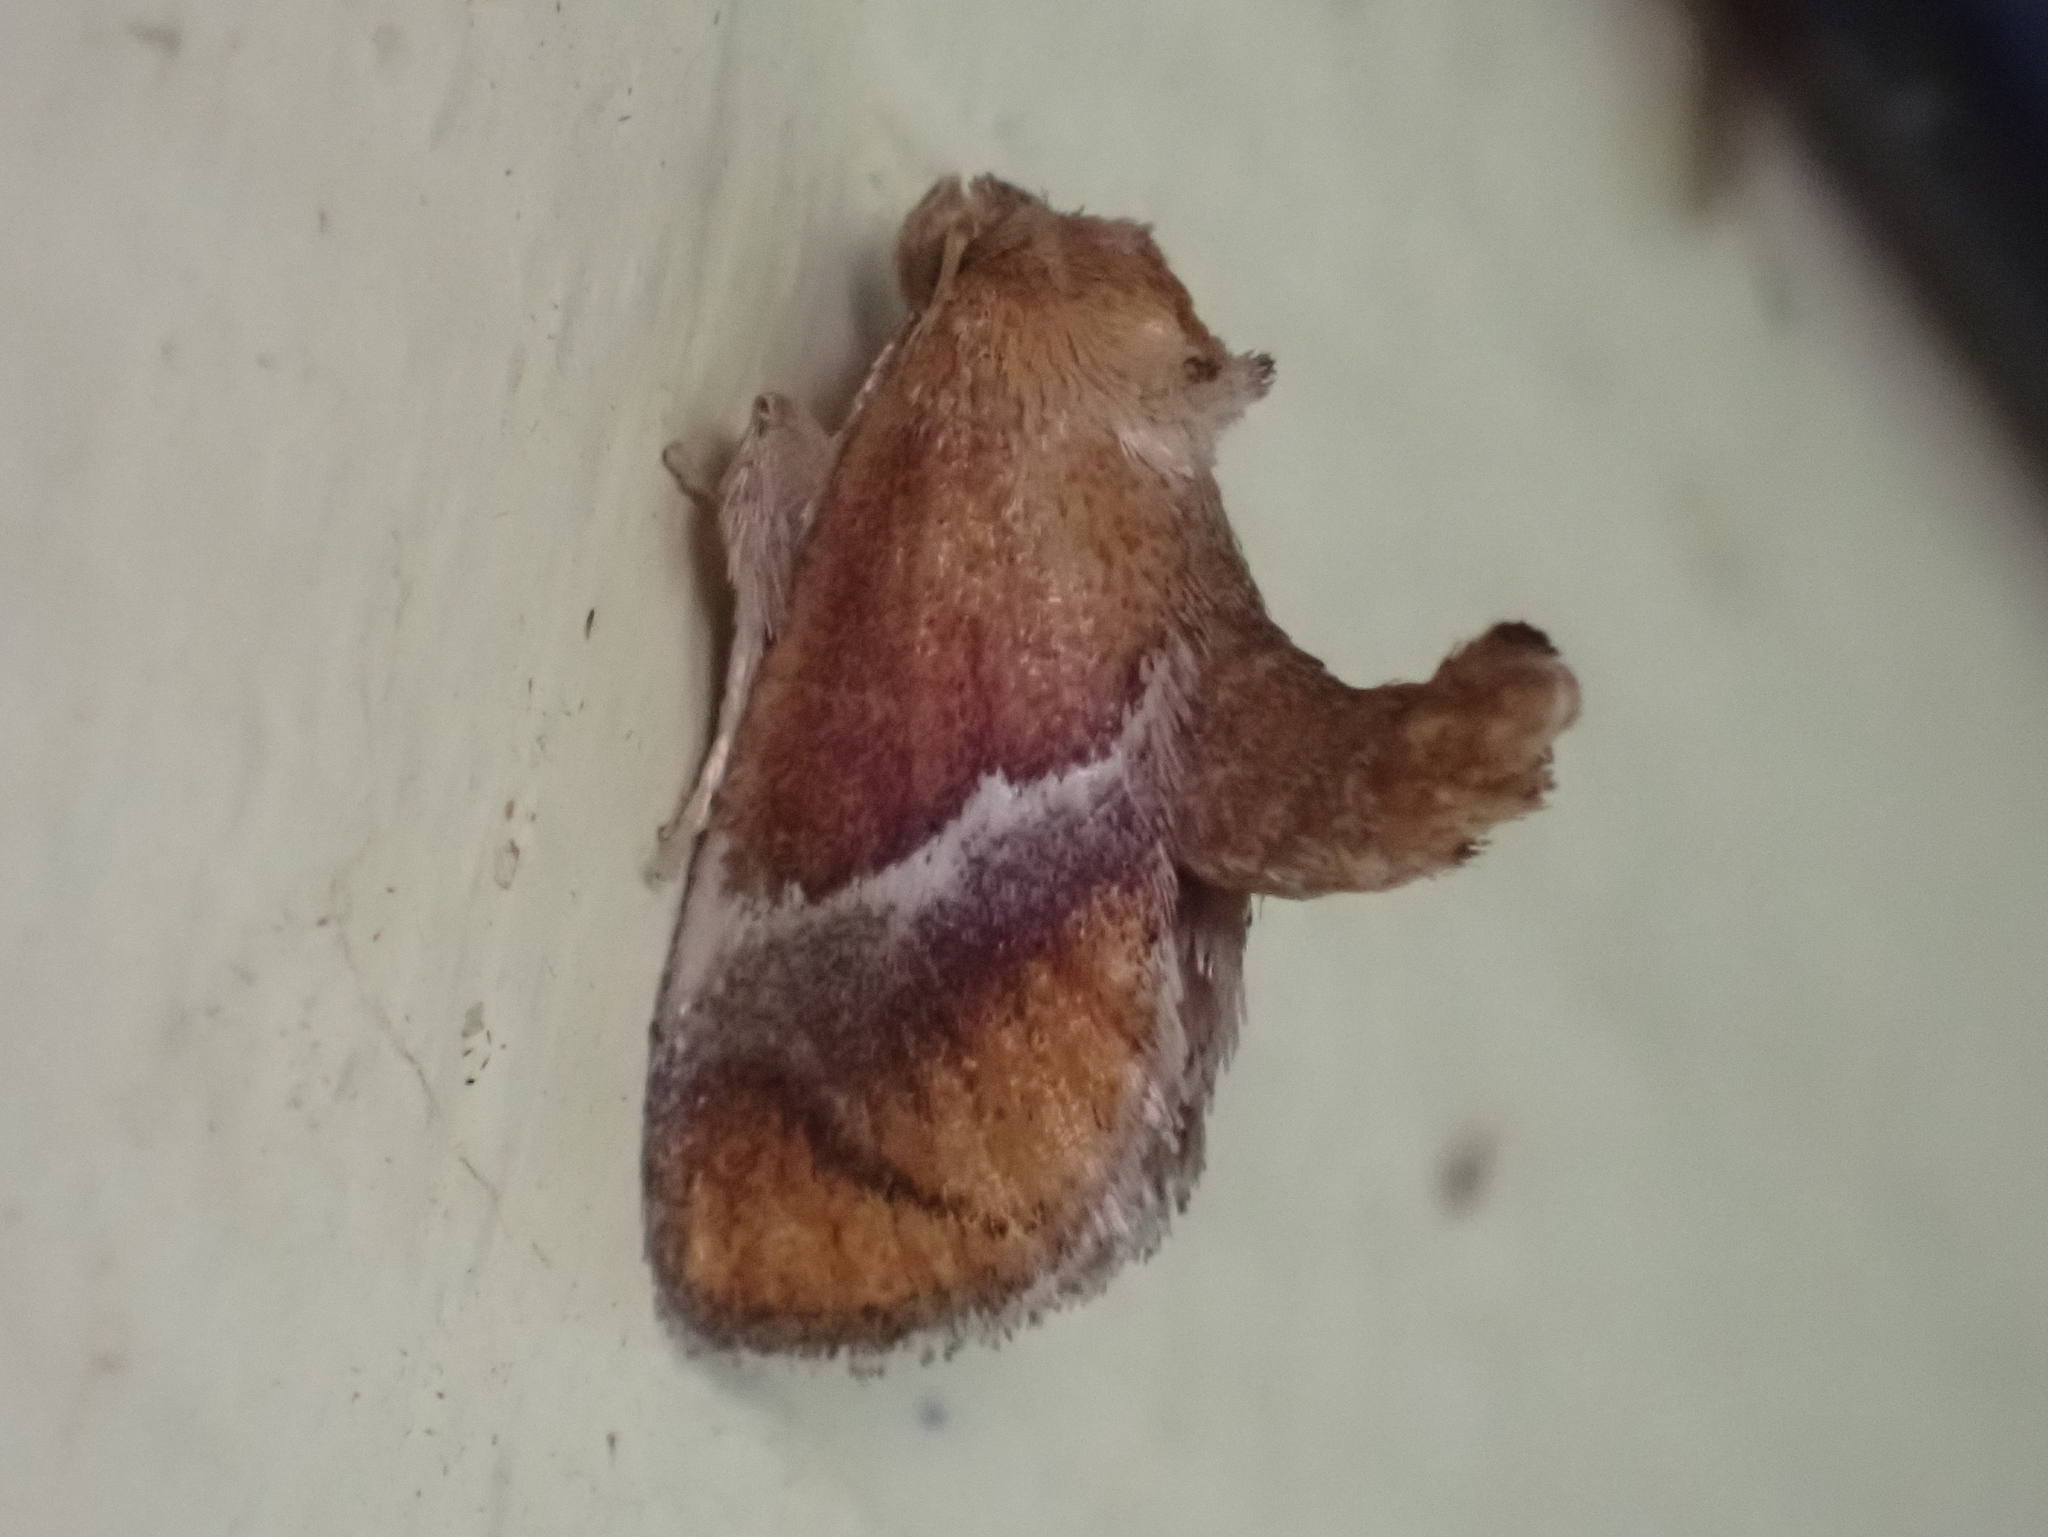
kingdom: Animalia
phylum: Arthropoda
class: Insecta
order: Lepidoptera
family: Limacodidae
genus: Lithacodes
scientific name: Lithacodes fasciola
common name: Yellow-shouldered slug moth
